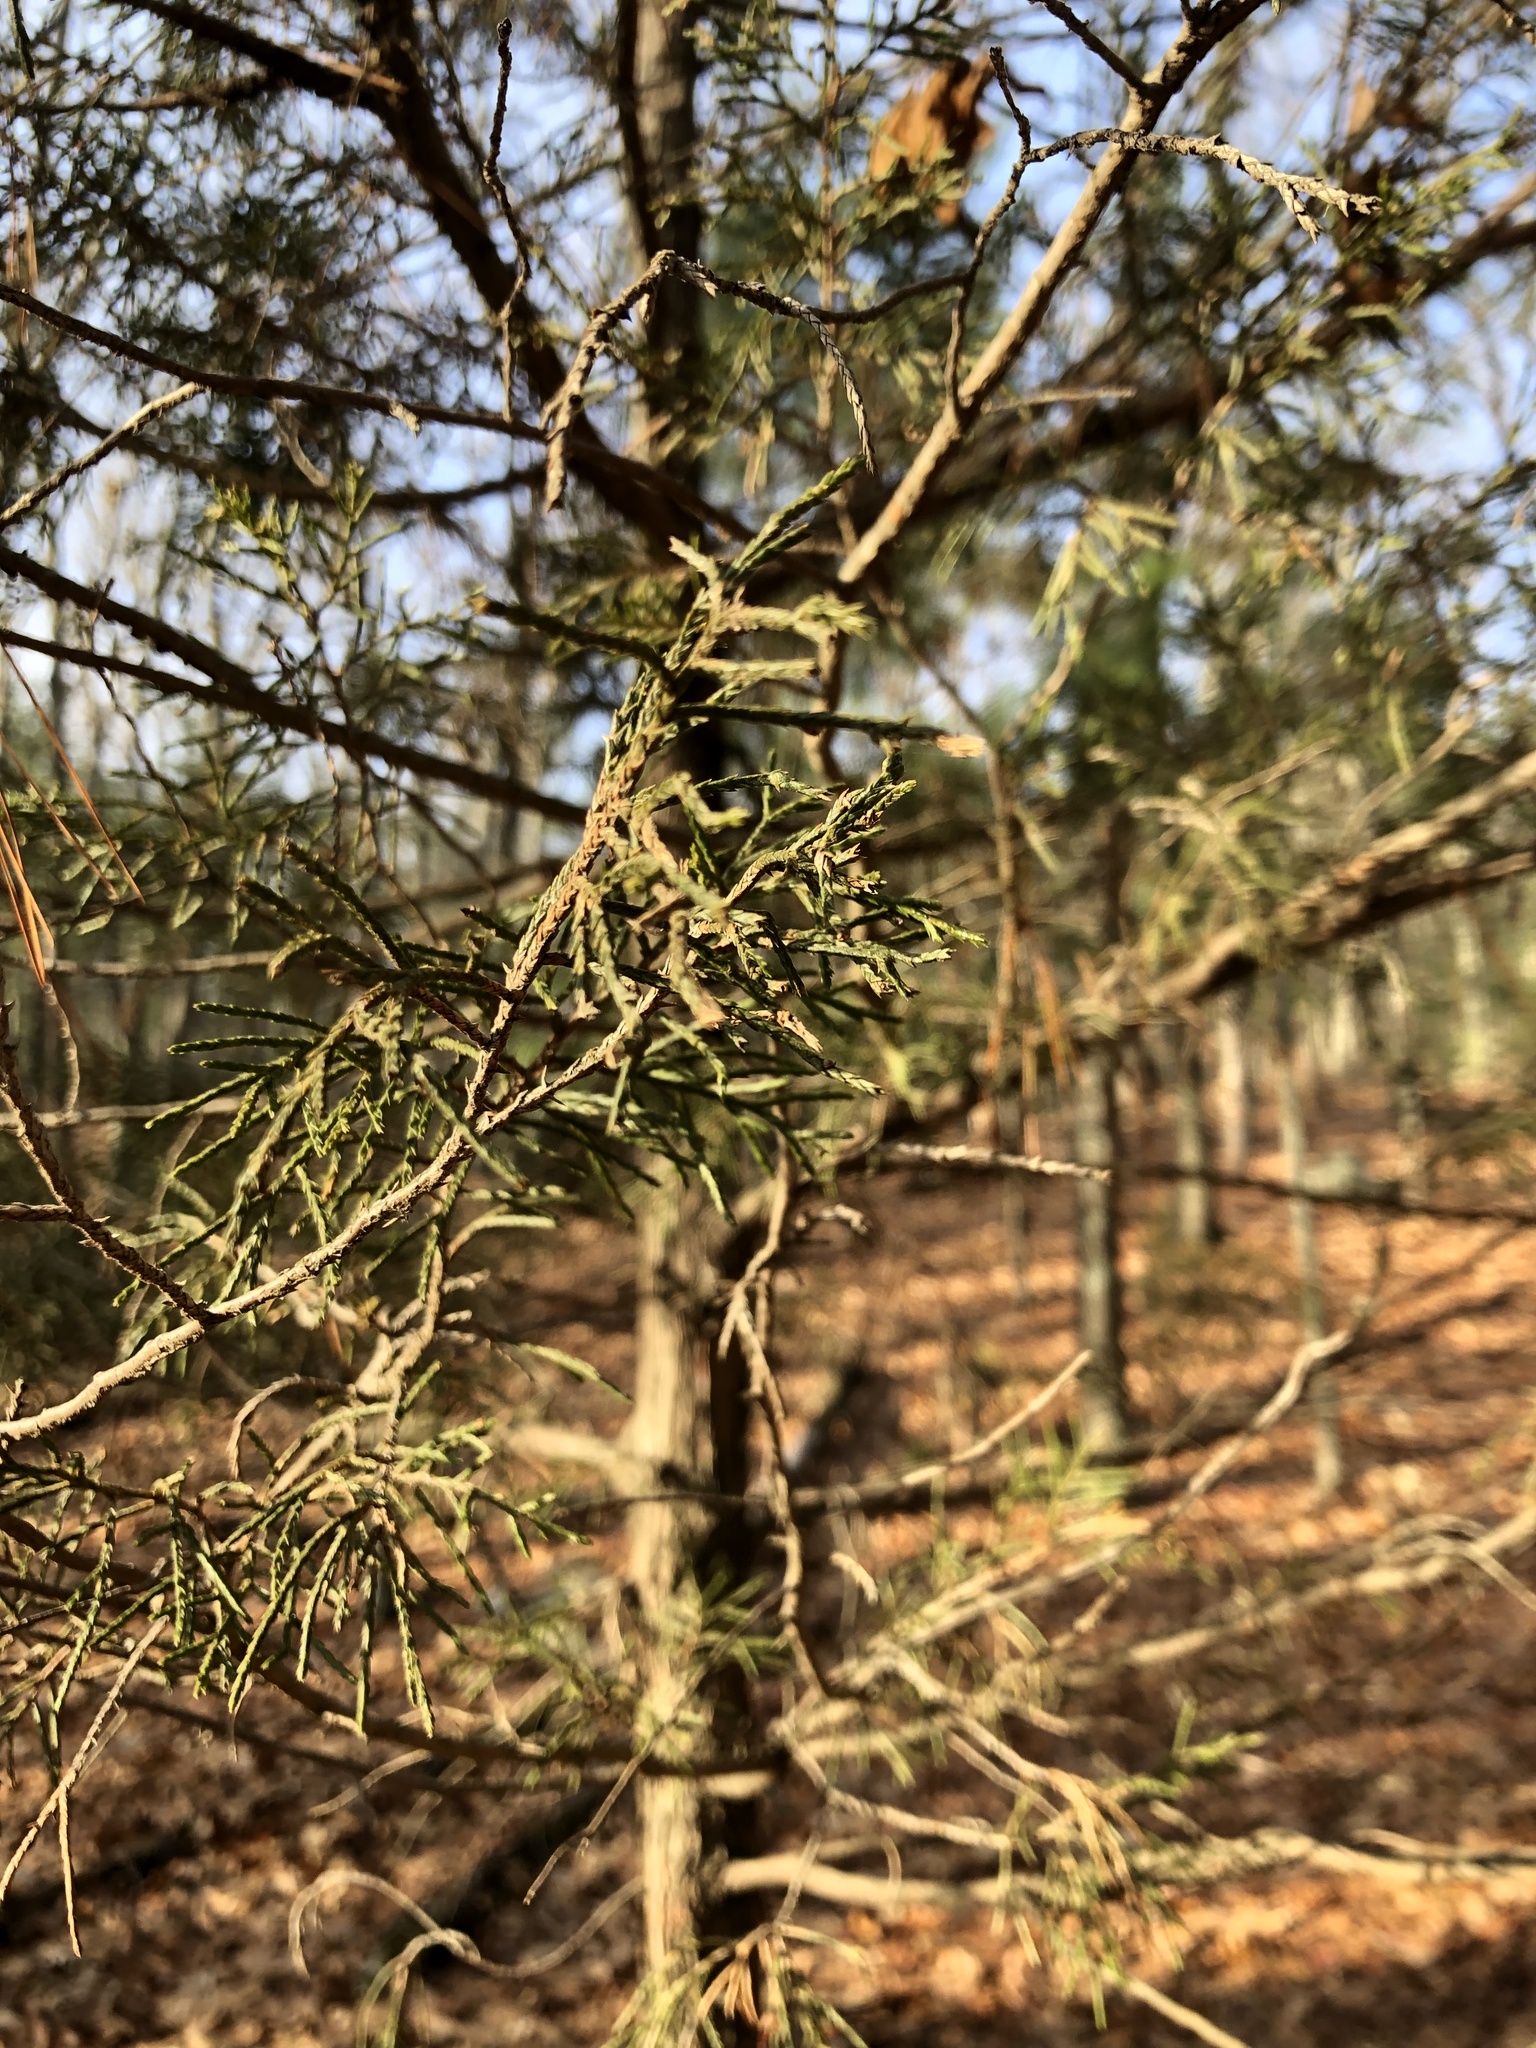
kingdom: Plantae
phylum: Tracheophyta
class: Pinopsida
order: Pinales
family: Cupressaceae
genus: Juniperus
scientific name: Juniperus virginiana
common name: Red juniper
